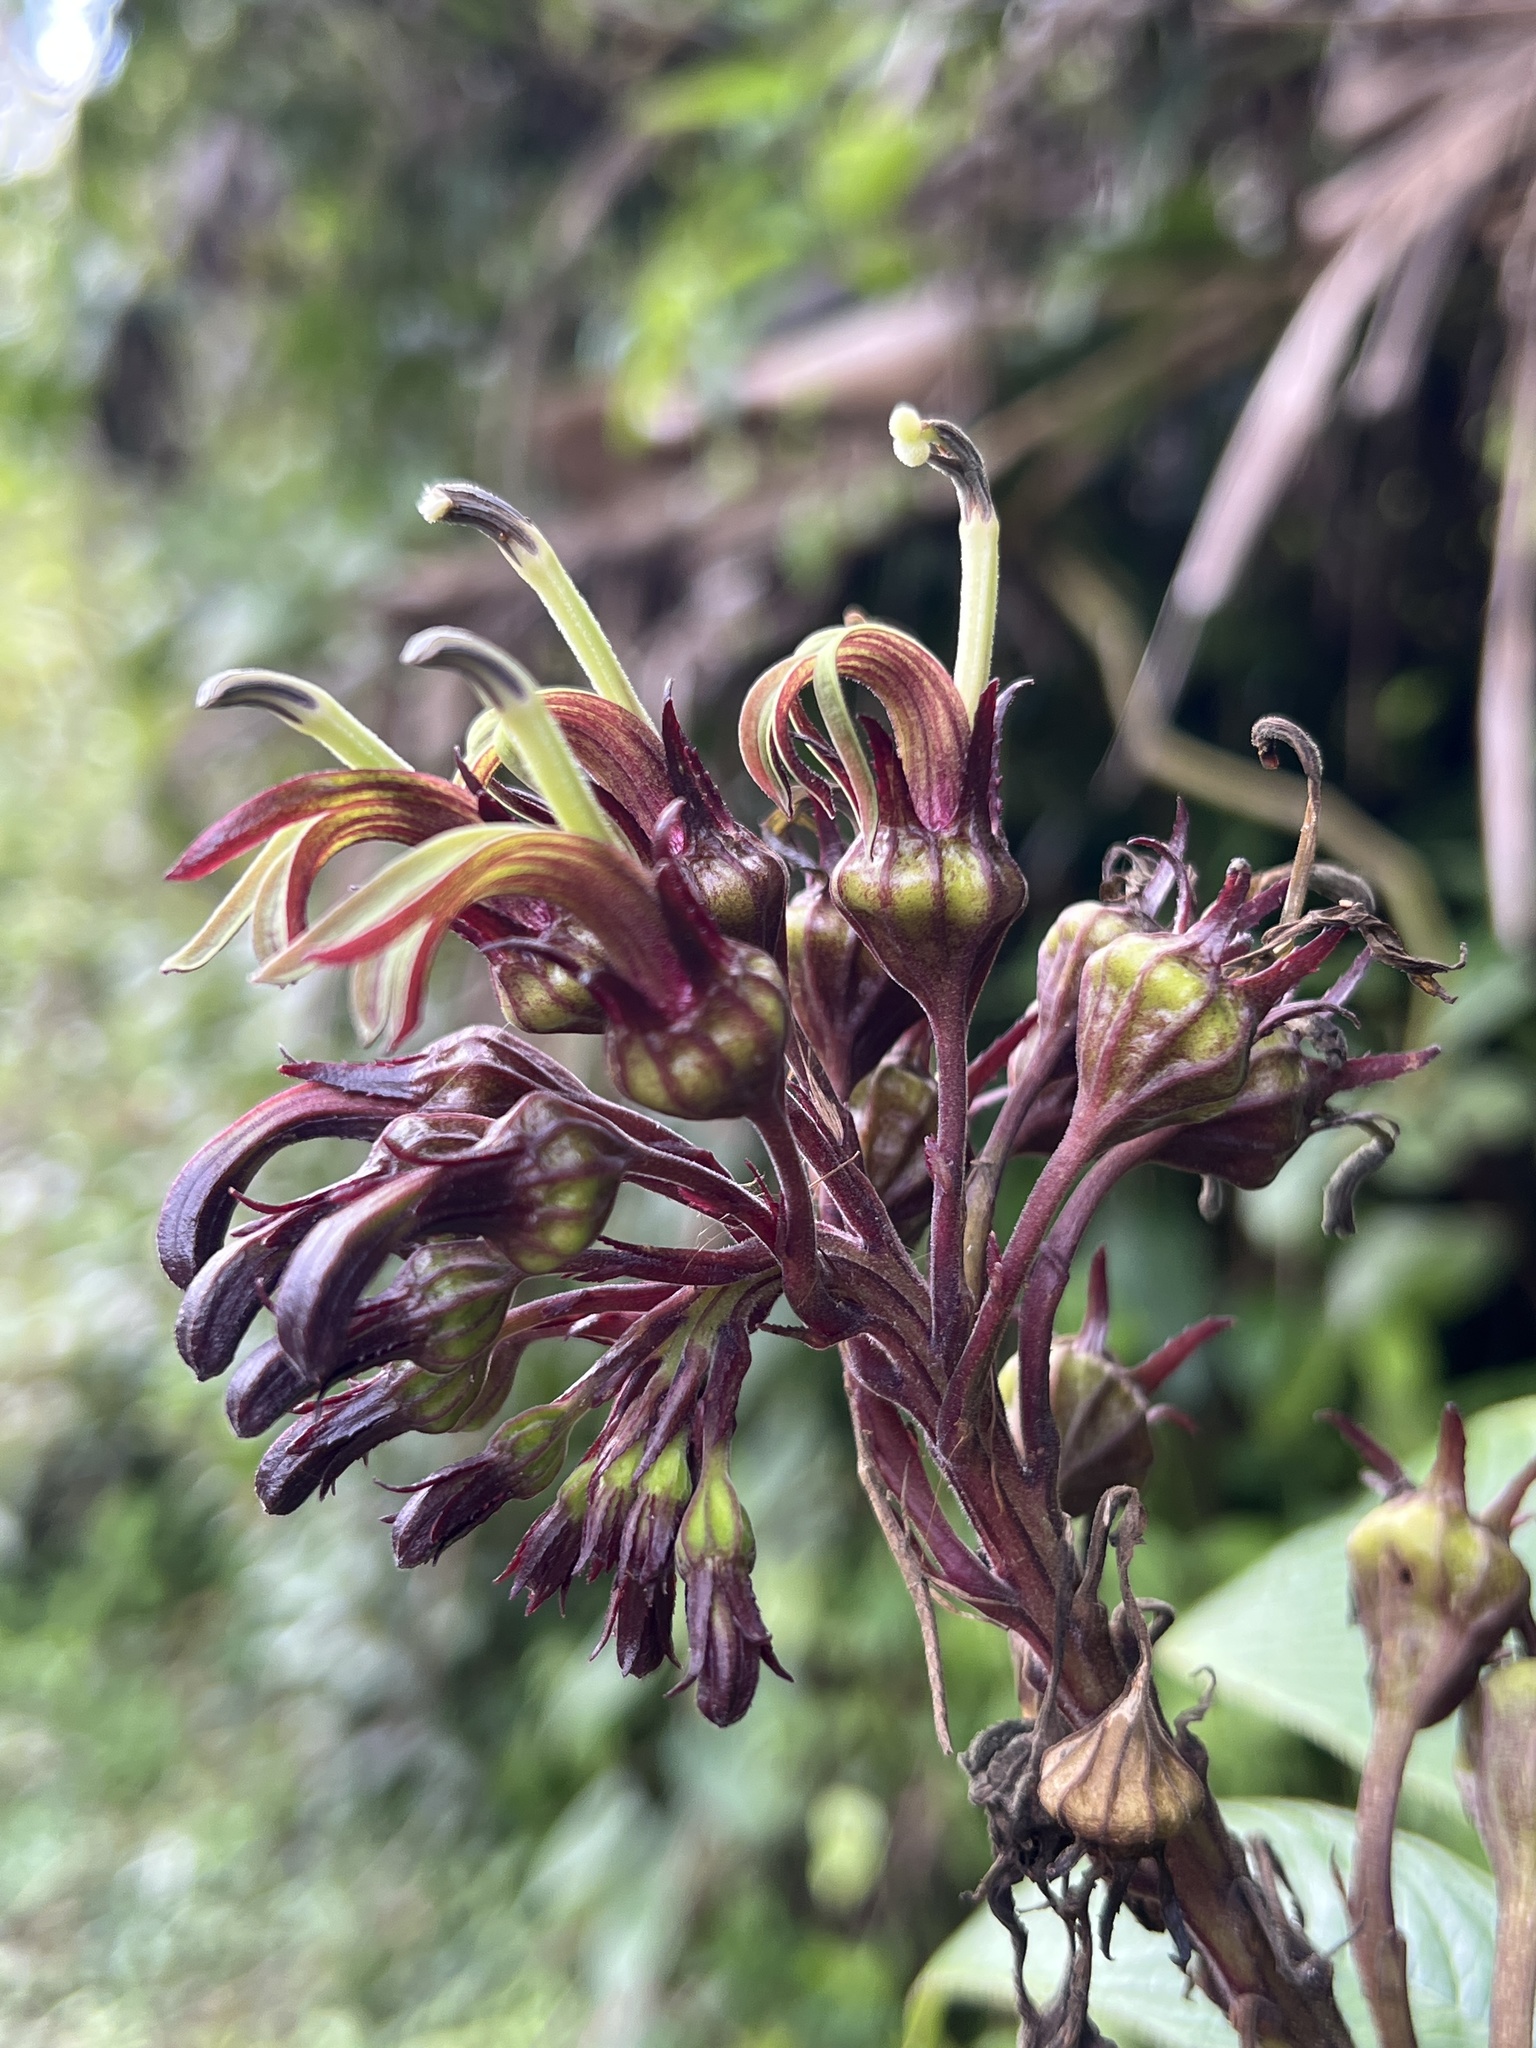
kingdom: Plantae
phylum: Tracheophyta
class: Magnoliopsida
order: Asterales
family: Campanulaceae
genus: Lobelia
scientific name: Lobelia portoricensis
